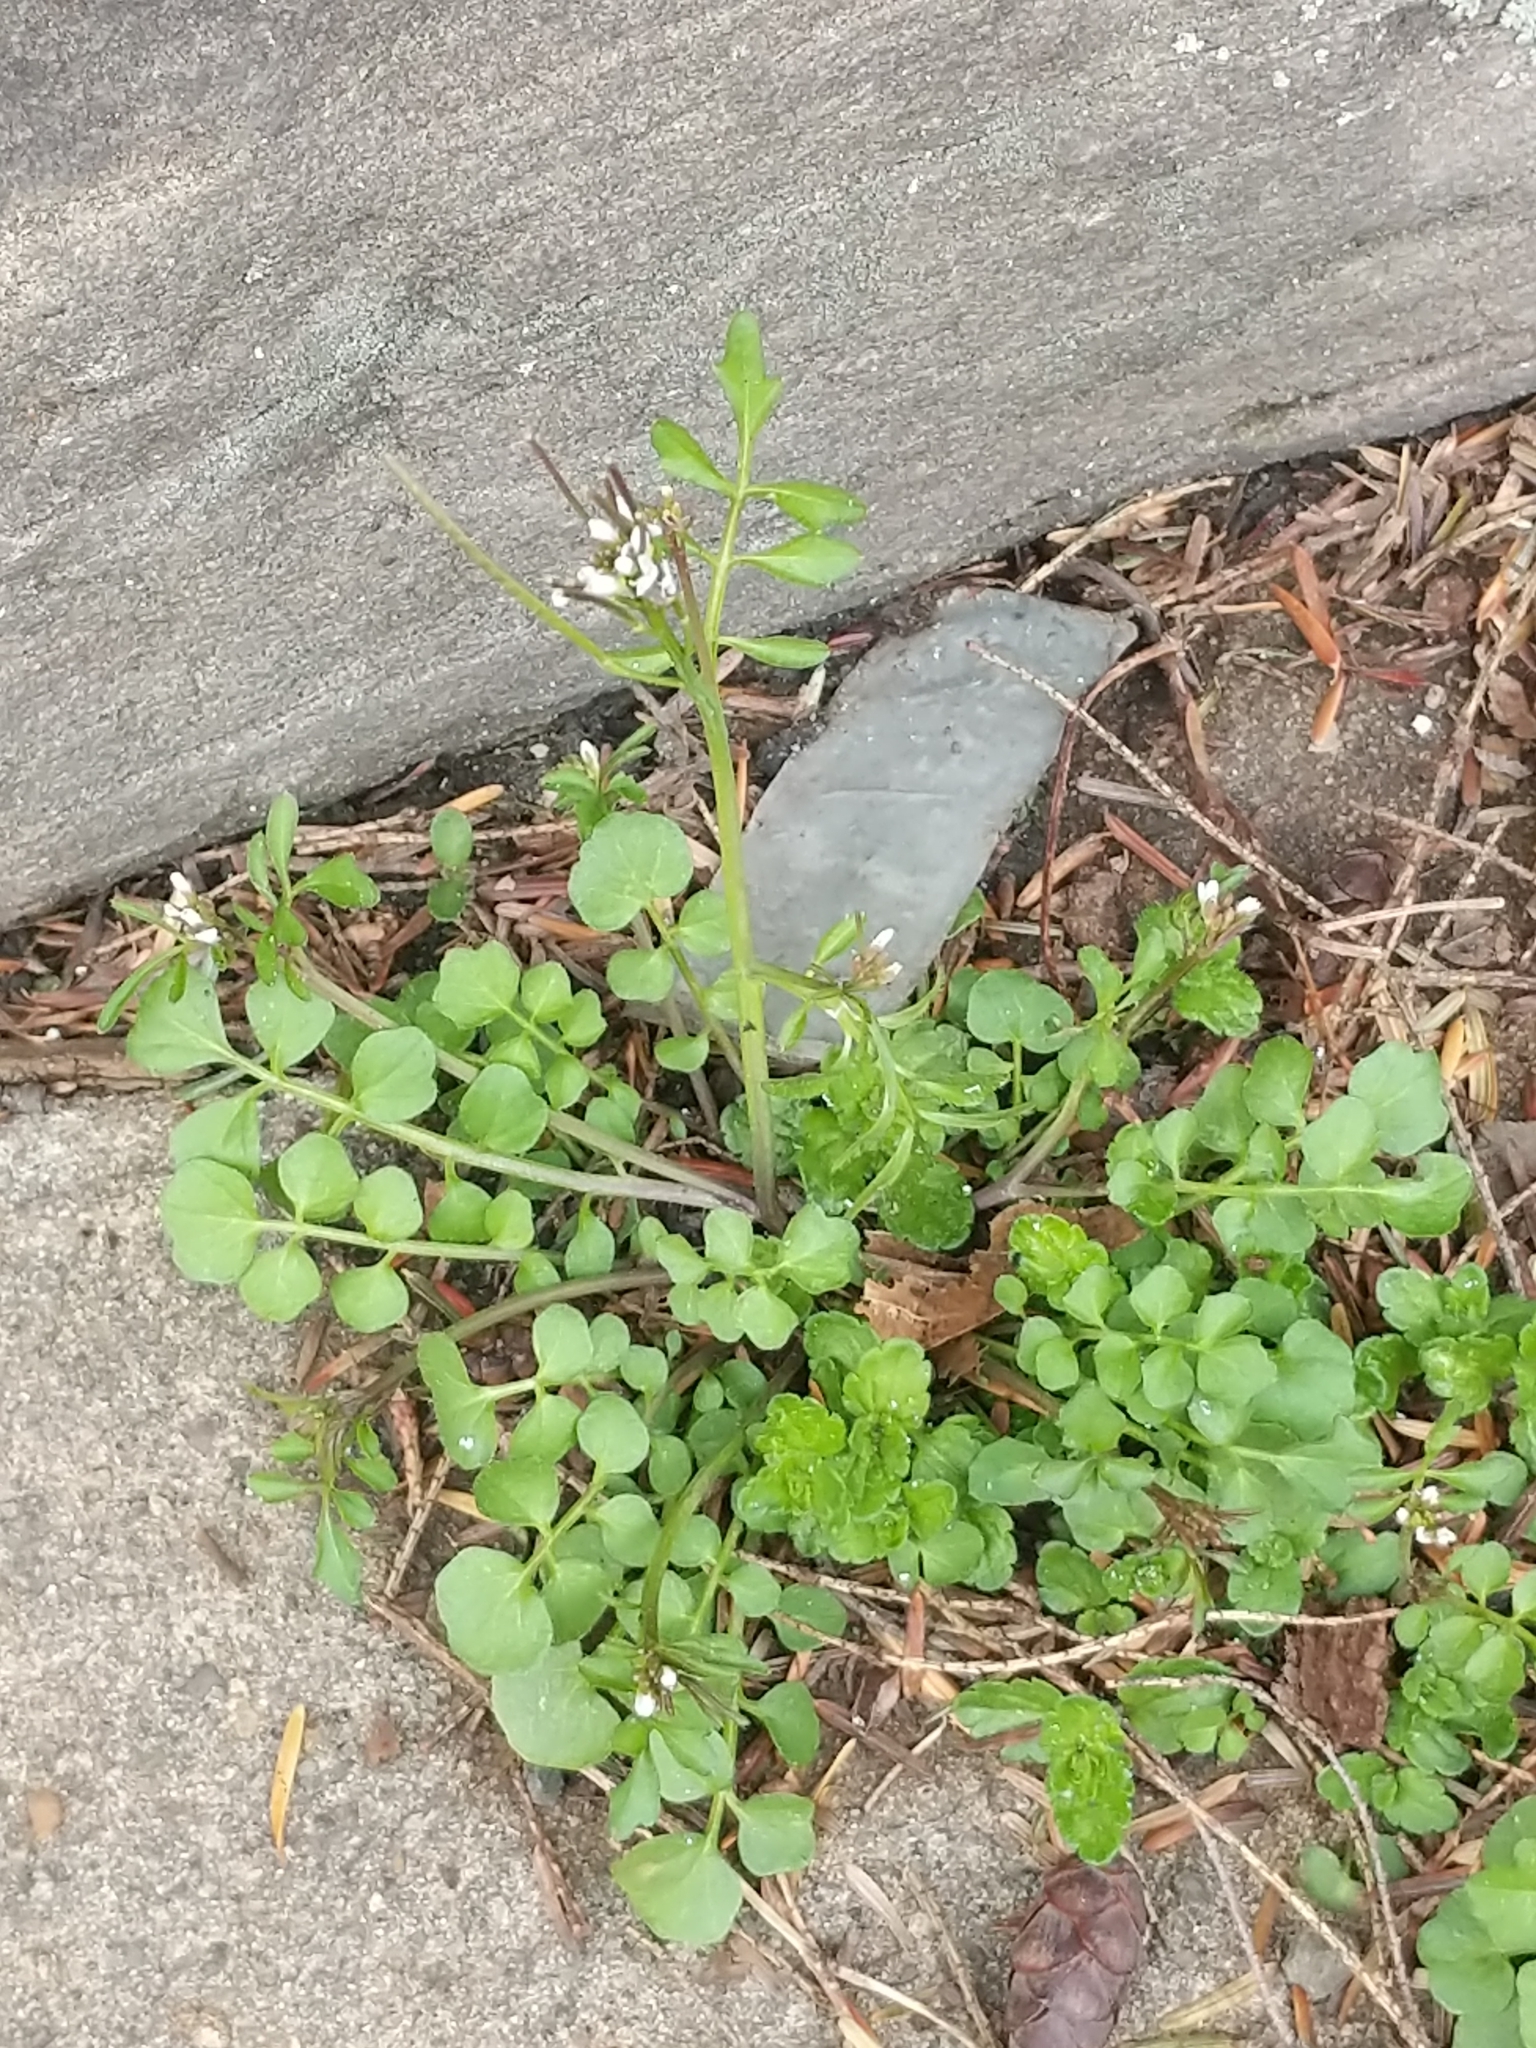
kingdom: Plantae
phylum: Tracheophyta
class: Magnoliopsida
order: Brassicales
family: Brassicaceae
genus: Cardamine
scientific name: Cardamine hirsuta
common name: Hairy bittercress
